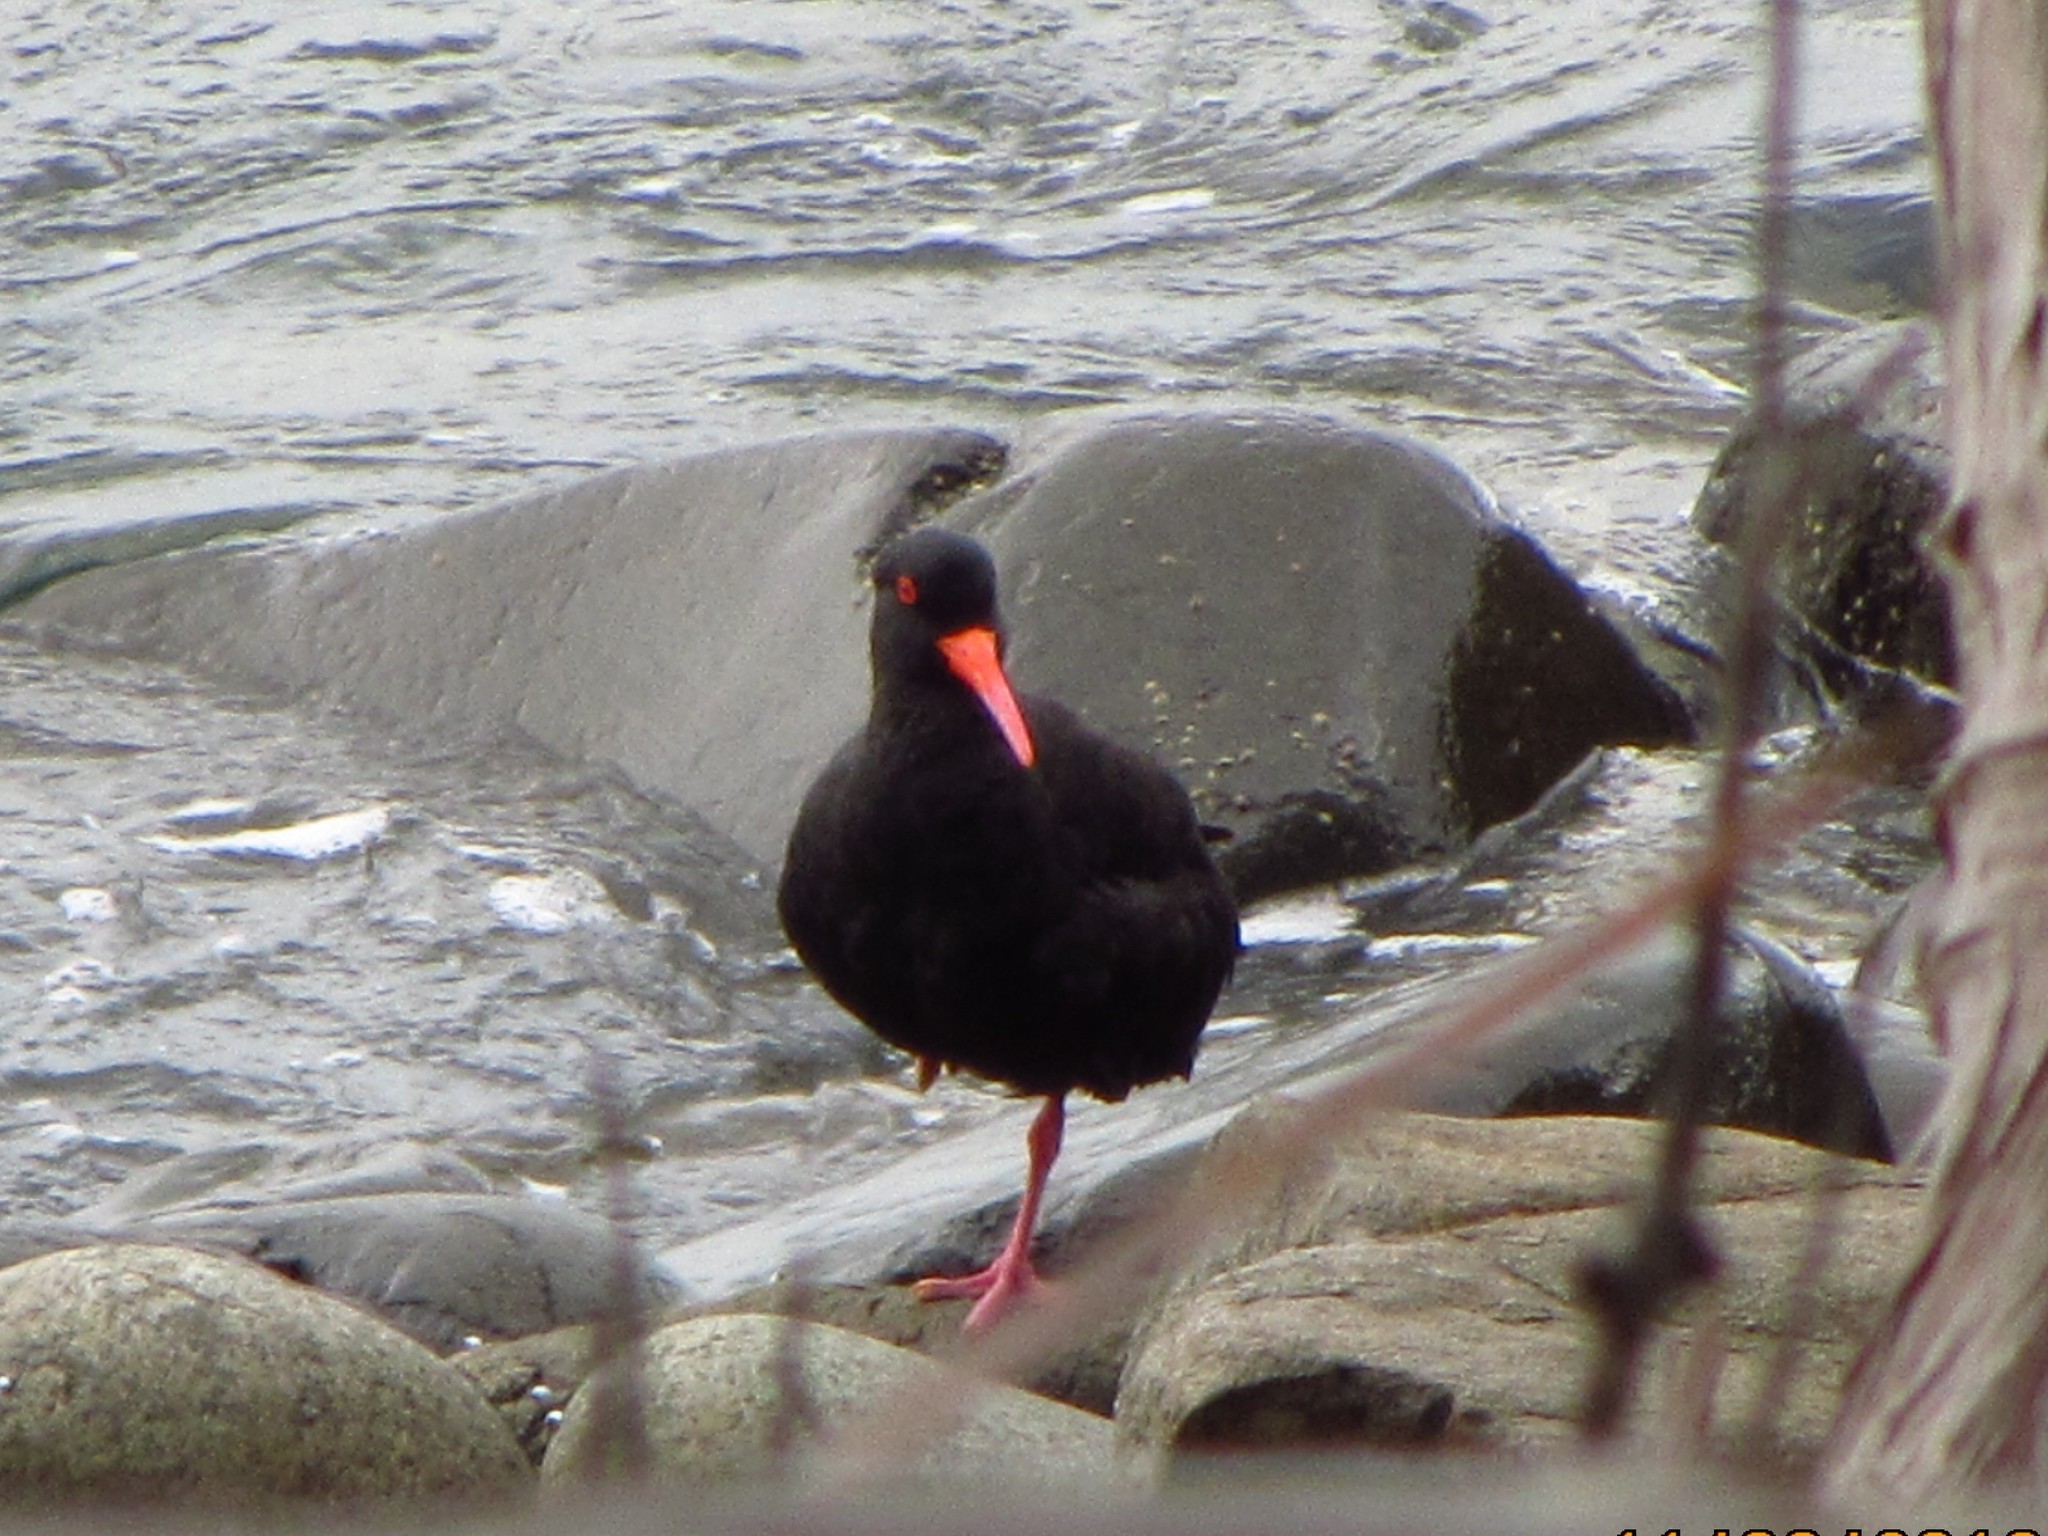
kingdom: Animalia
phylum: Chordata
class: Aves
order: Charadriiformes
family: Haematopodidae
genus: Haematopus
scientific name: Haematopus fuliginosus
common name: Sooty oystercatcher
